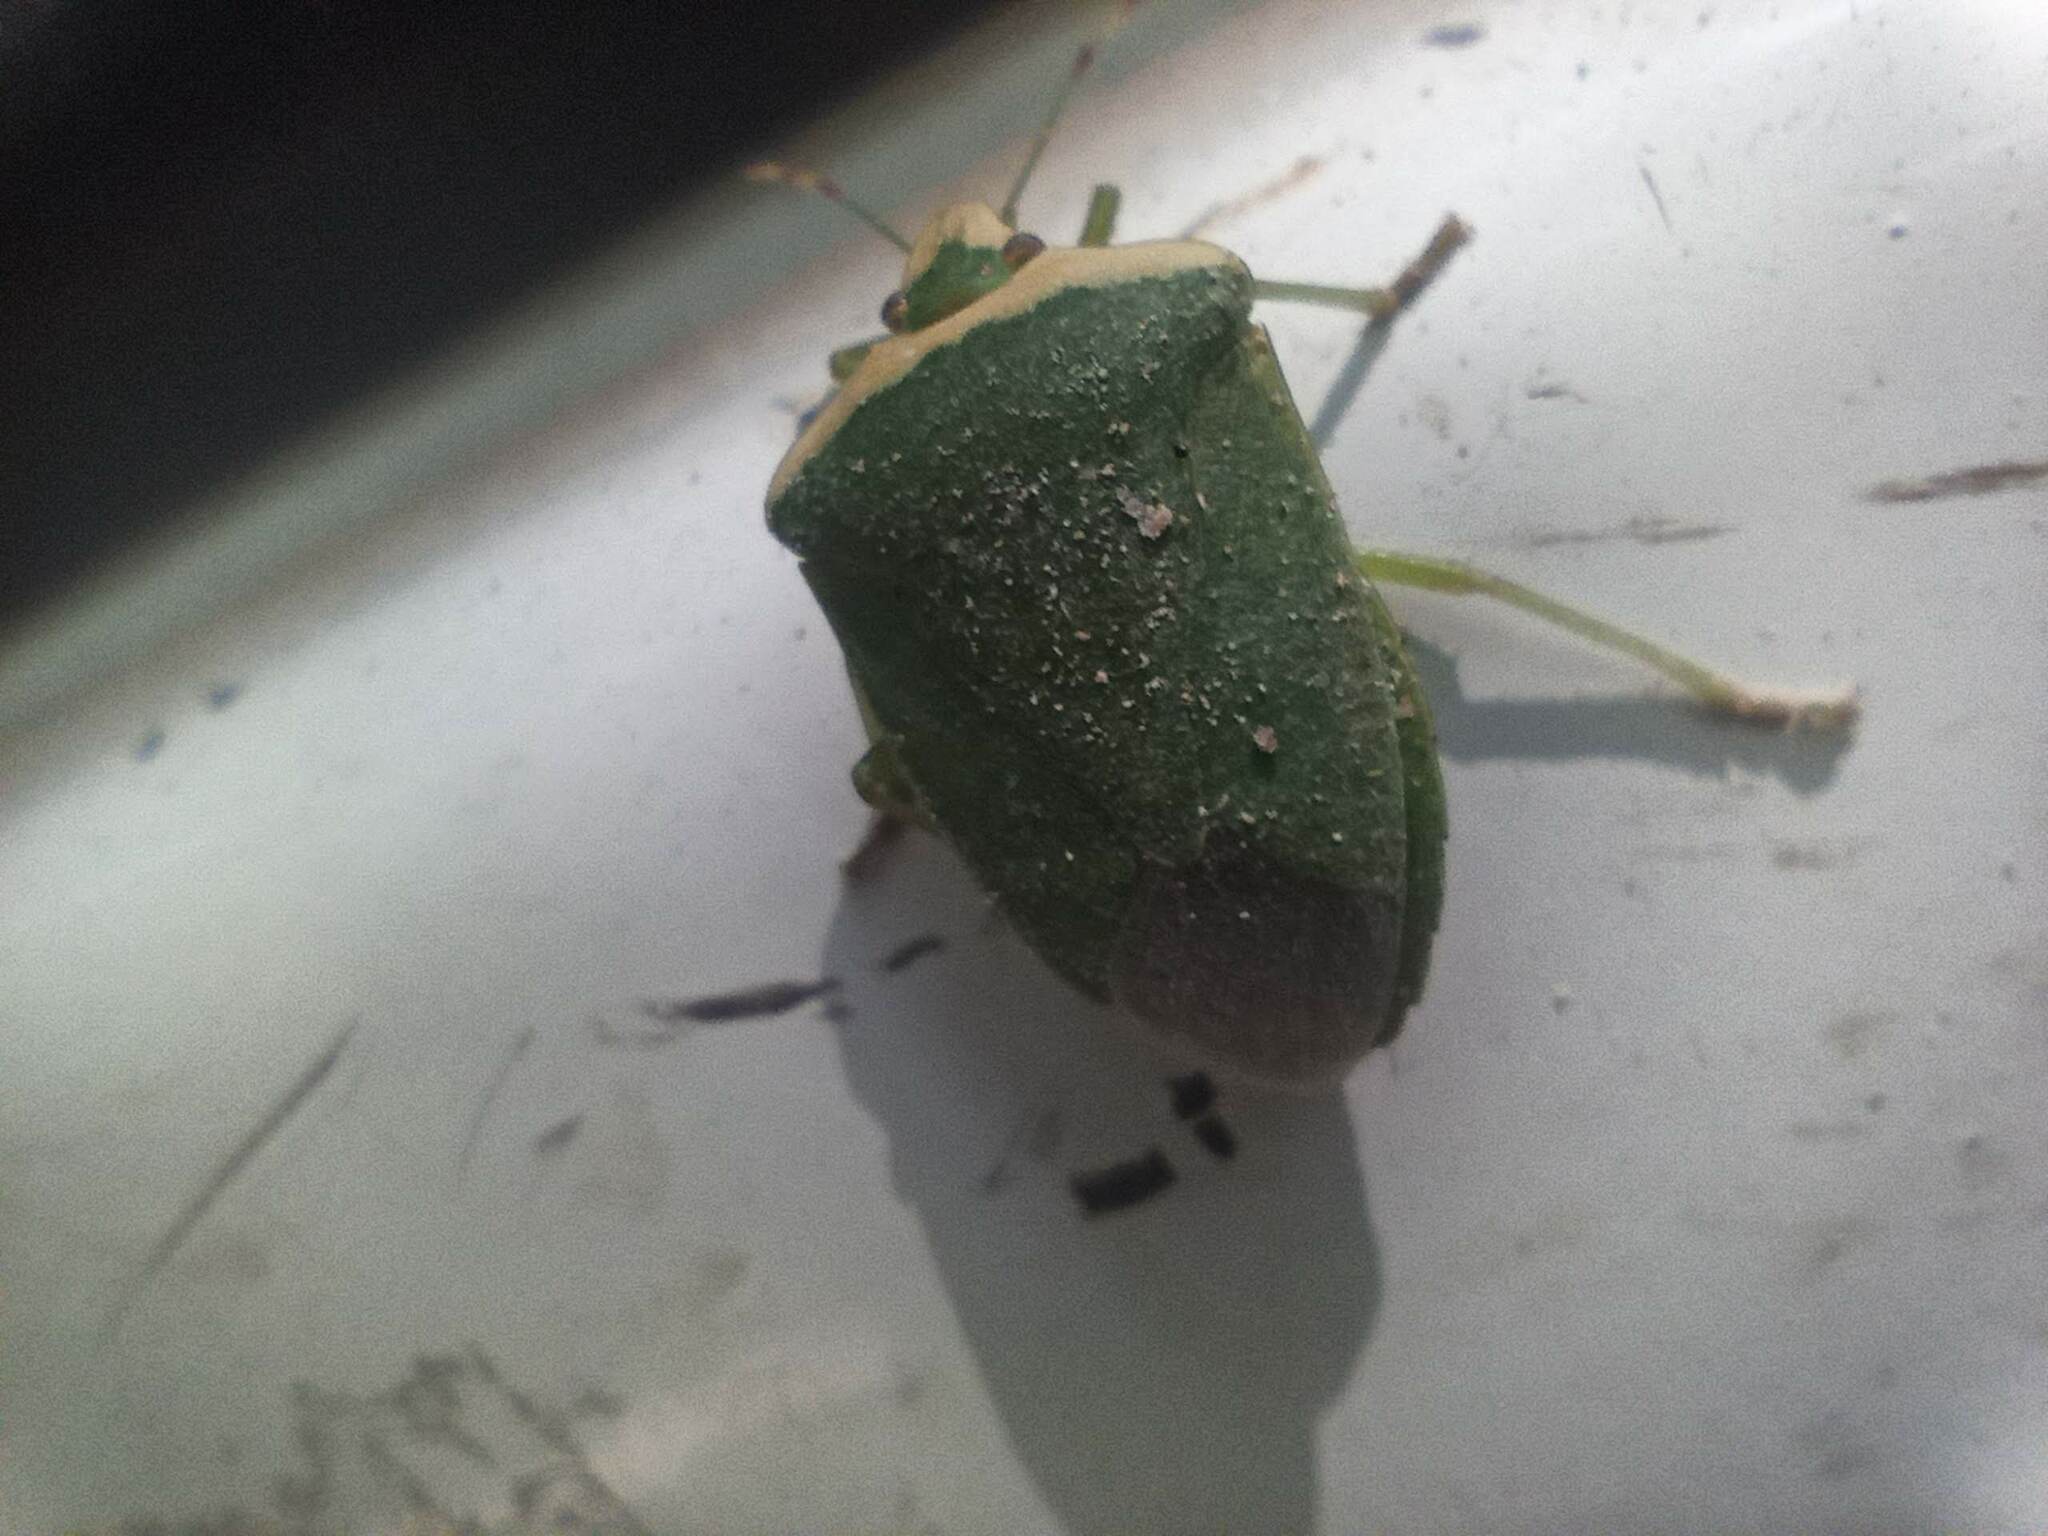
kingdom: Animalia
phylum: Arthropoda
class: Insecta
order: Hemiptera
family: Pentatomidae
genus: Nezara
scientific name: Nezara viridula
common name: Southern green stink bug
